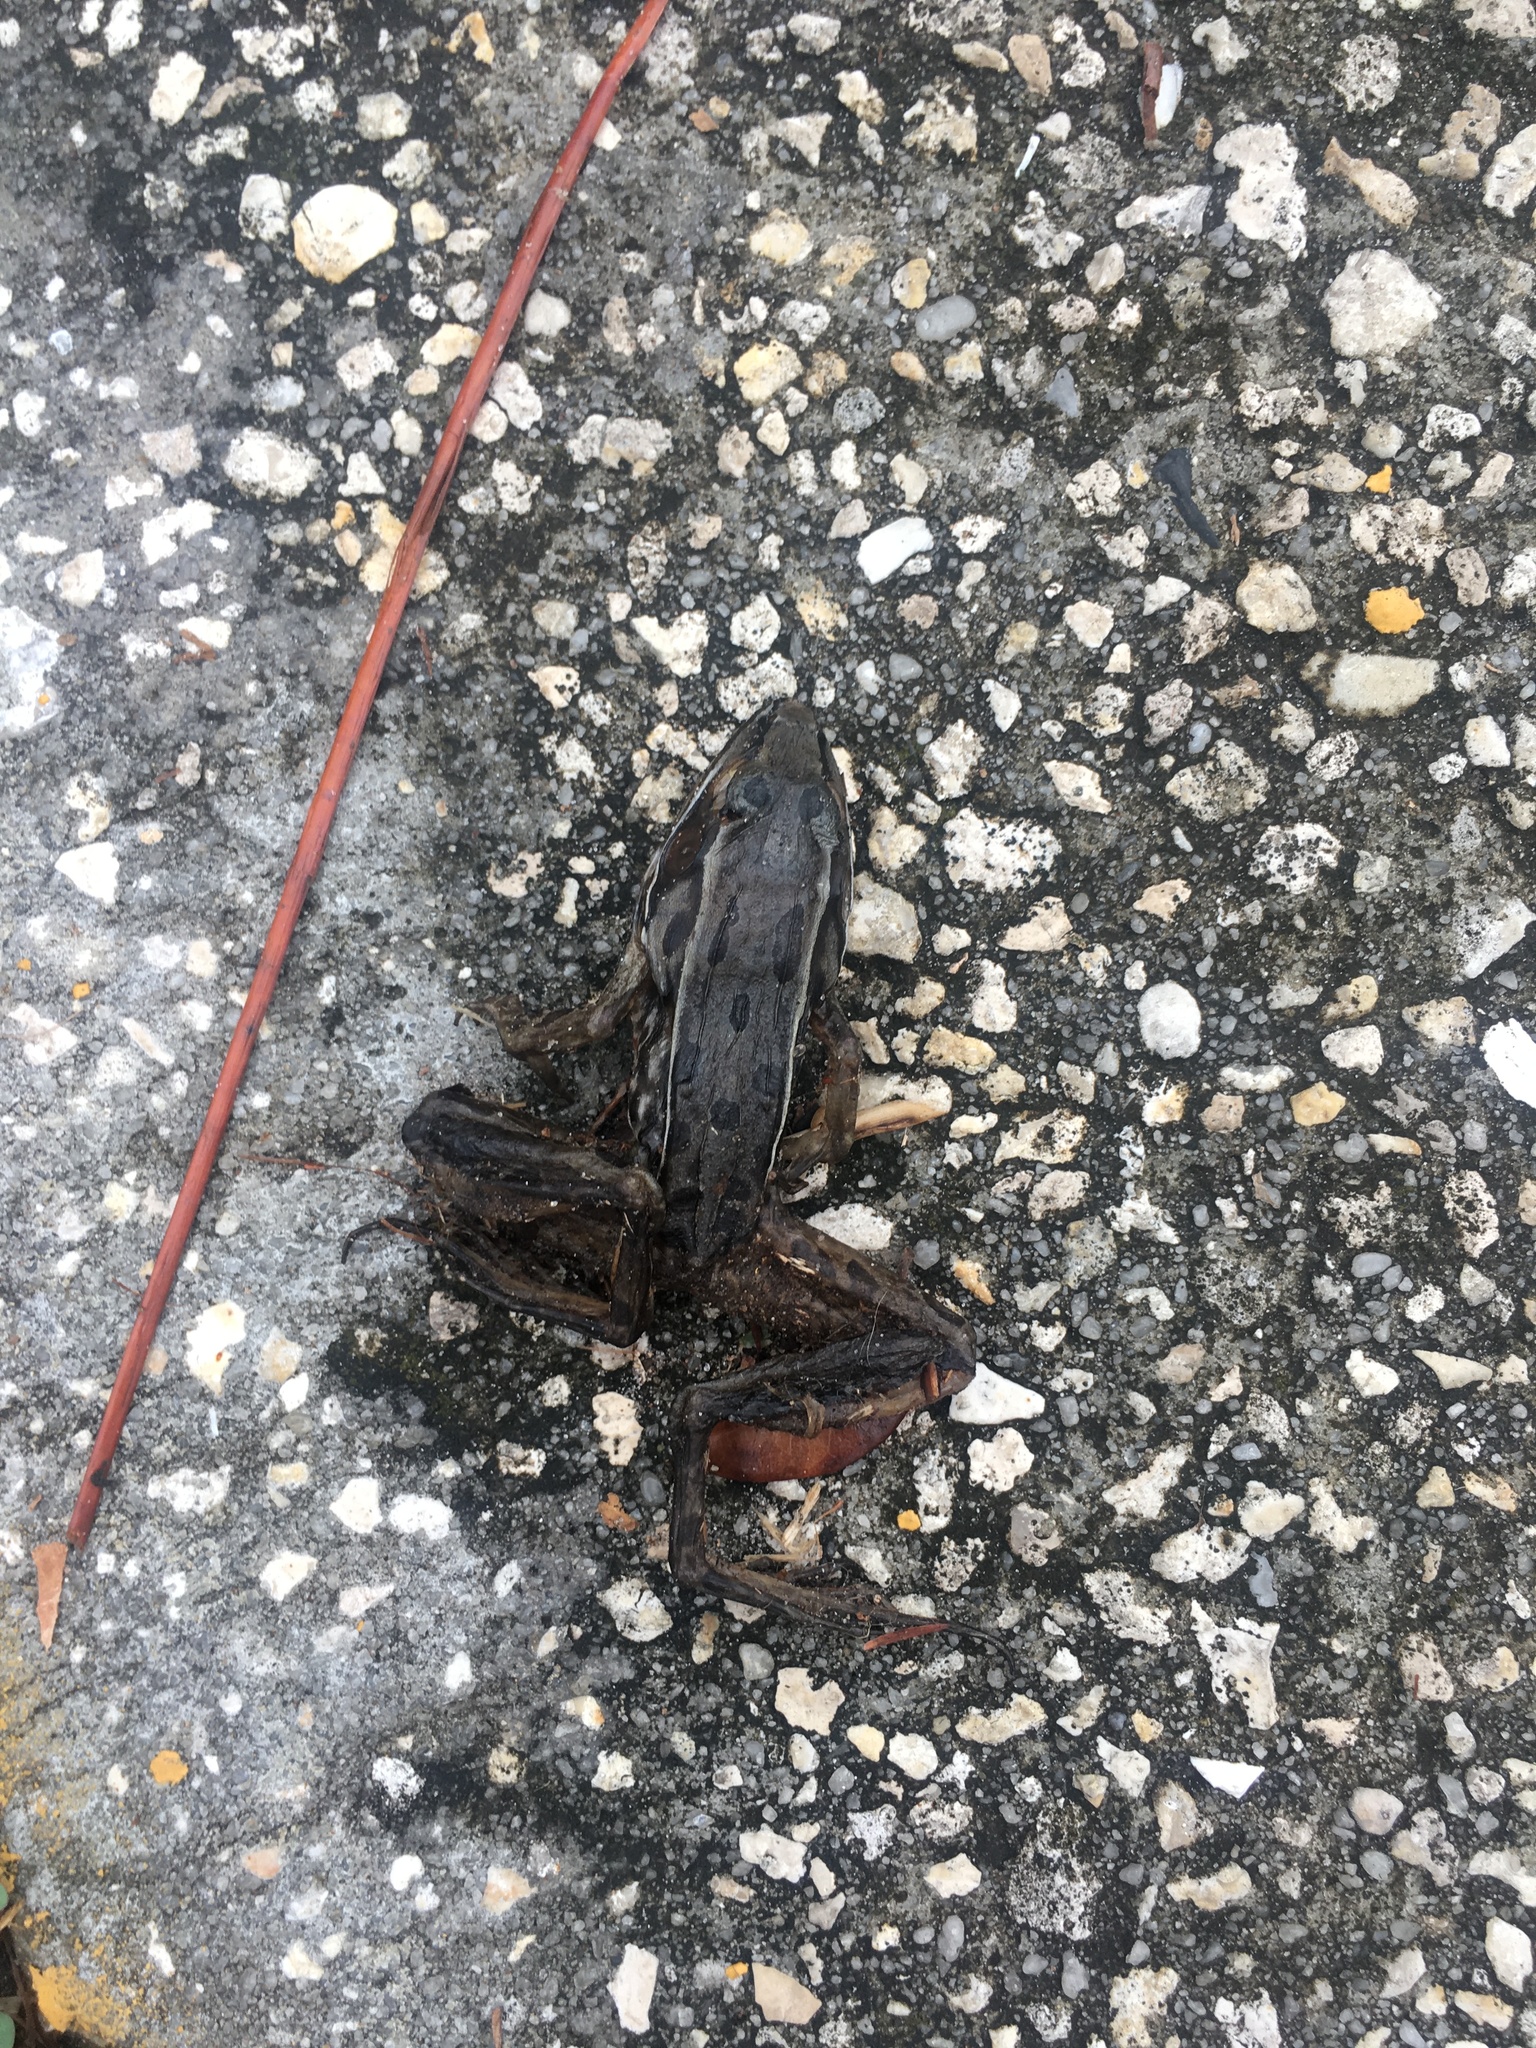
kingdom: Animalia
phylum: Chordata
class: Amphibia
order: Anura
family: Ranidae
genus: Lithobates
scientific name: Lithobates sphenocephalus
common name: Southern leopard frog
